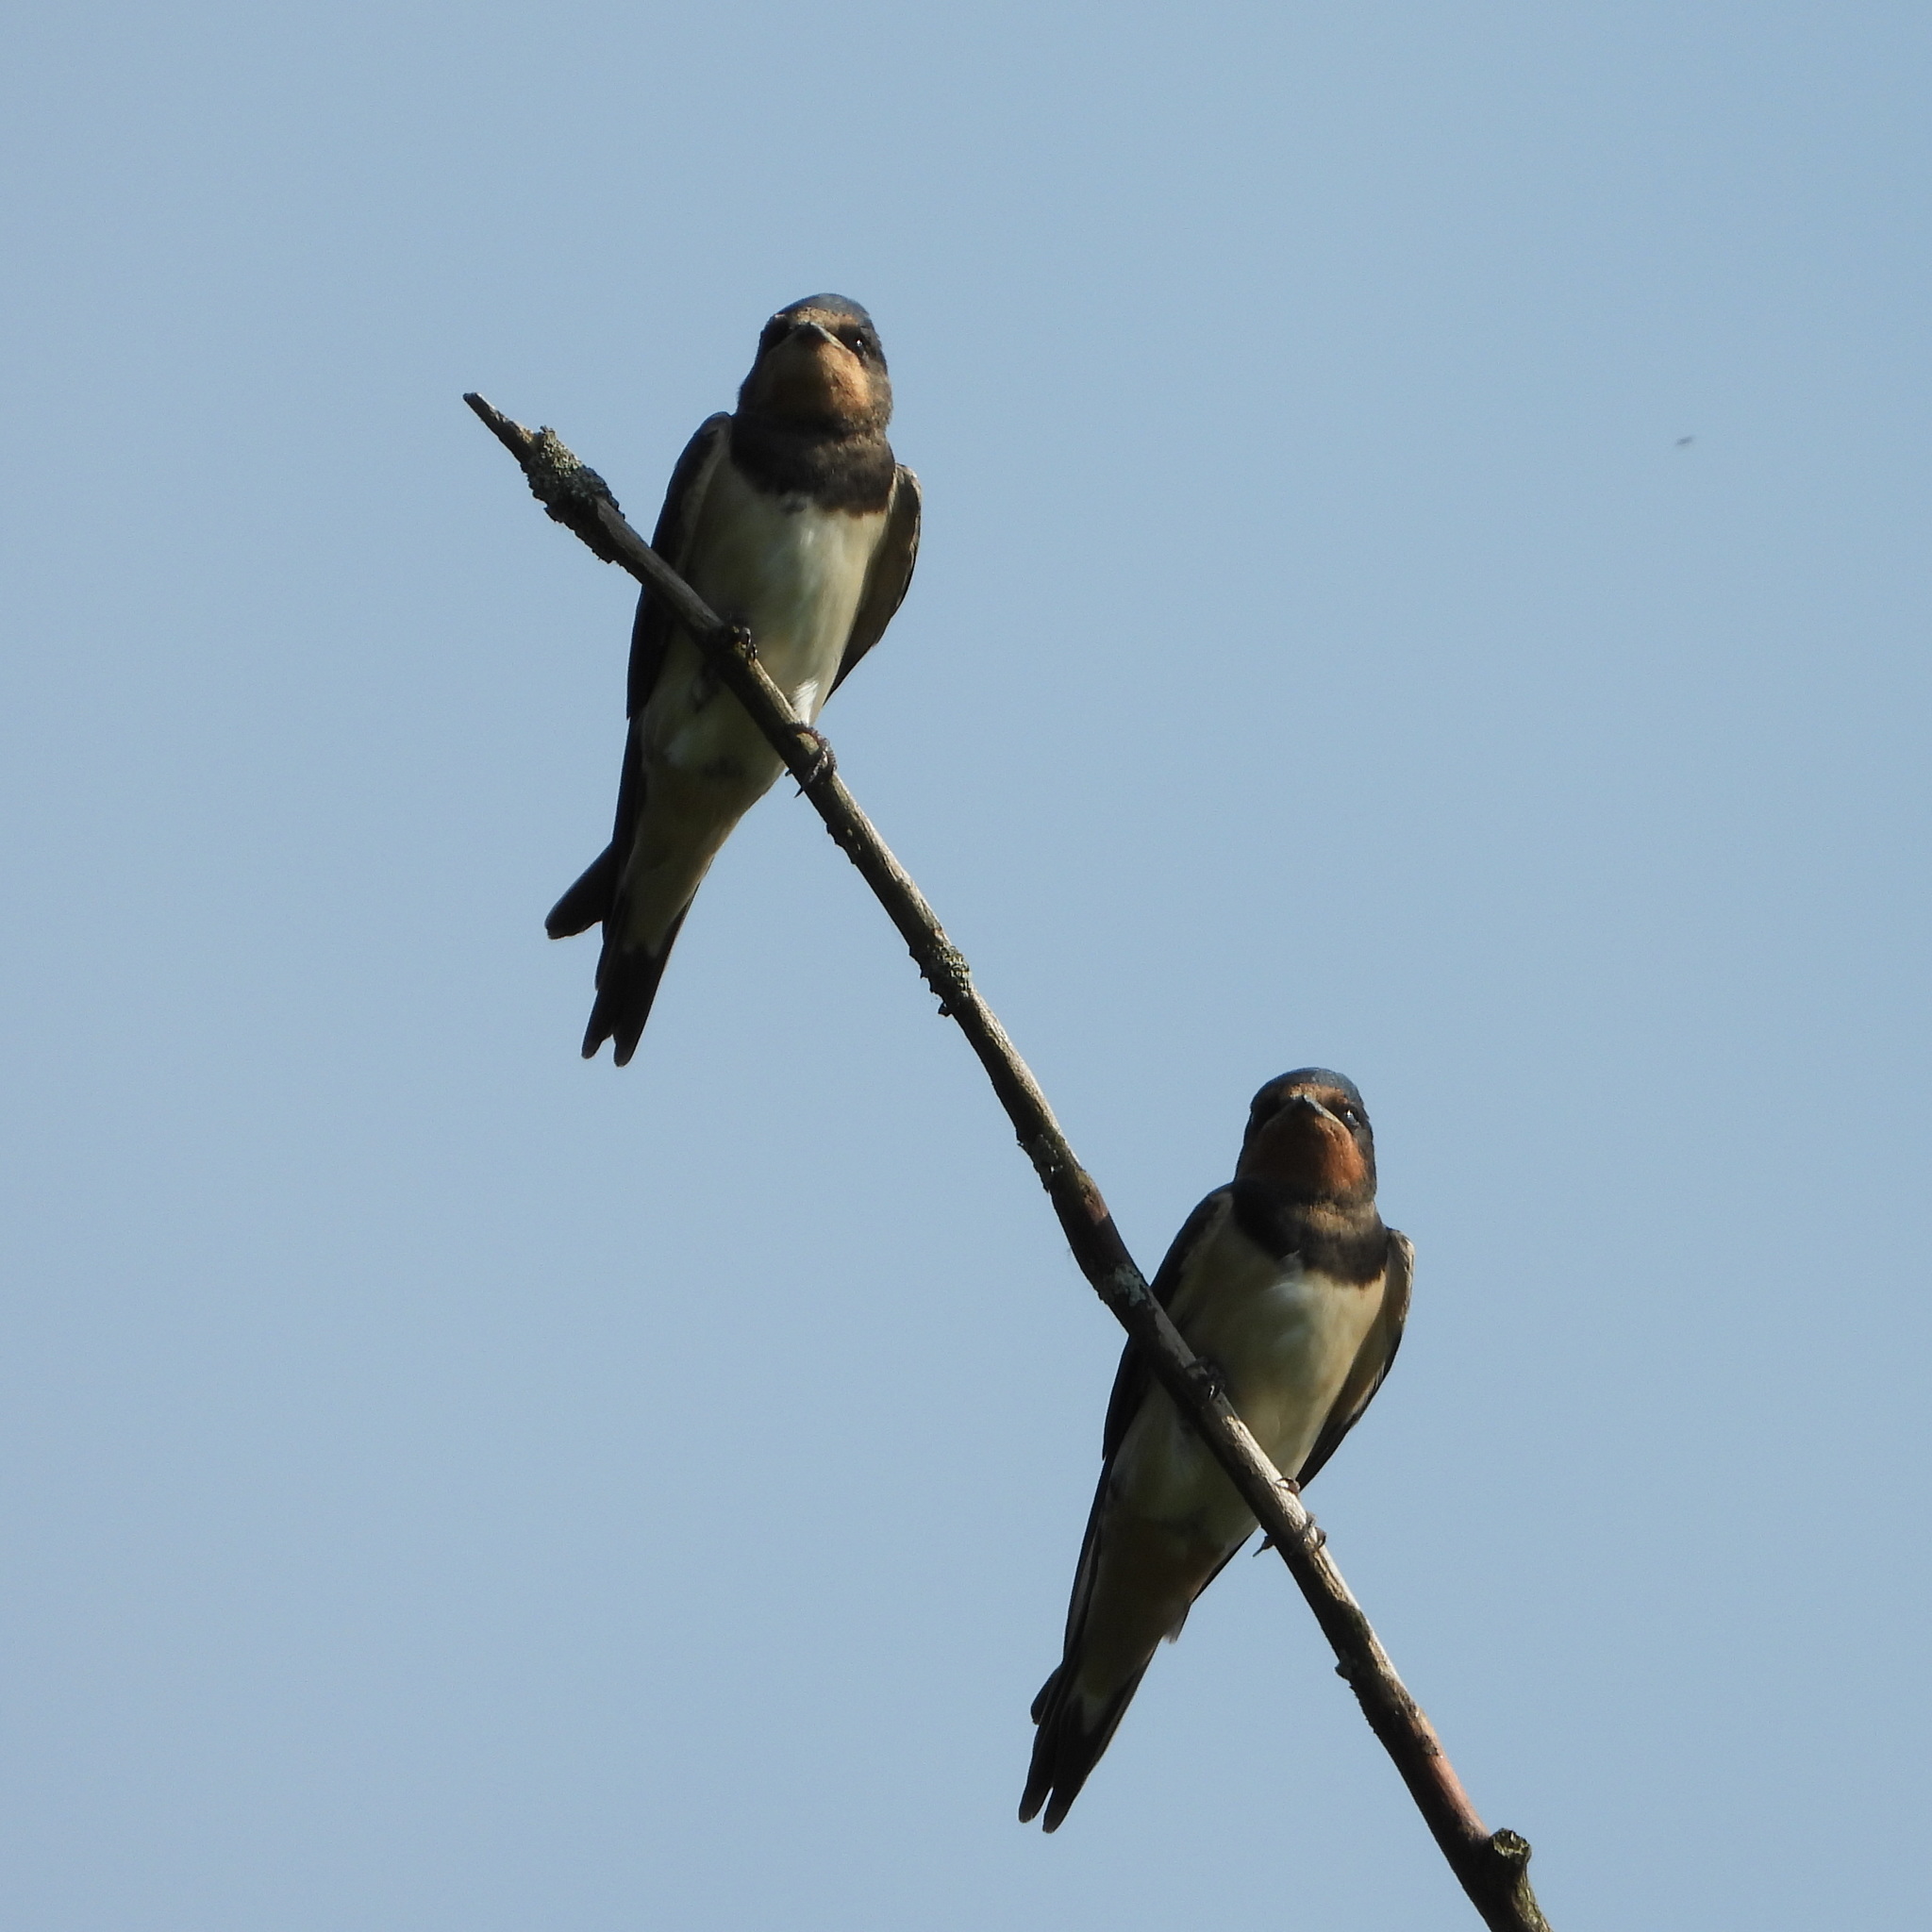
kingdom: Animalia
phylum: Chordata
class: Aves
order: Passeriformes
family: Hirundinidae
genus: Hirundo
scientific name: Hirundo rustica
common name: Barn swallow
